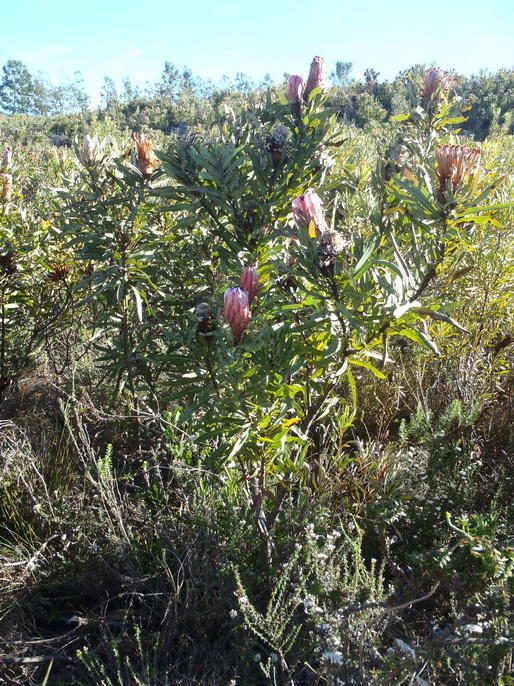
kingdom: Plantae
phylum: Tracheophyta
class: Magnoliopsida
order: Proteales
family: Proteaceae
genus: Protea
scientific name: Protea neriifolia
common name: Blue sugarbush
